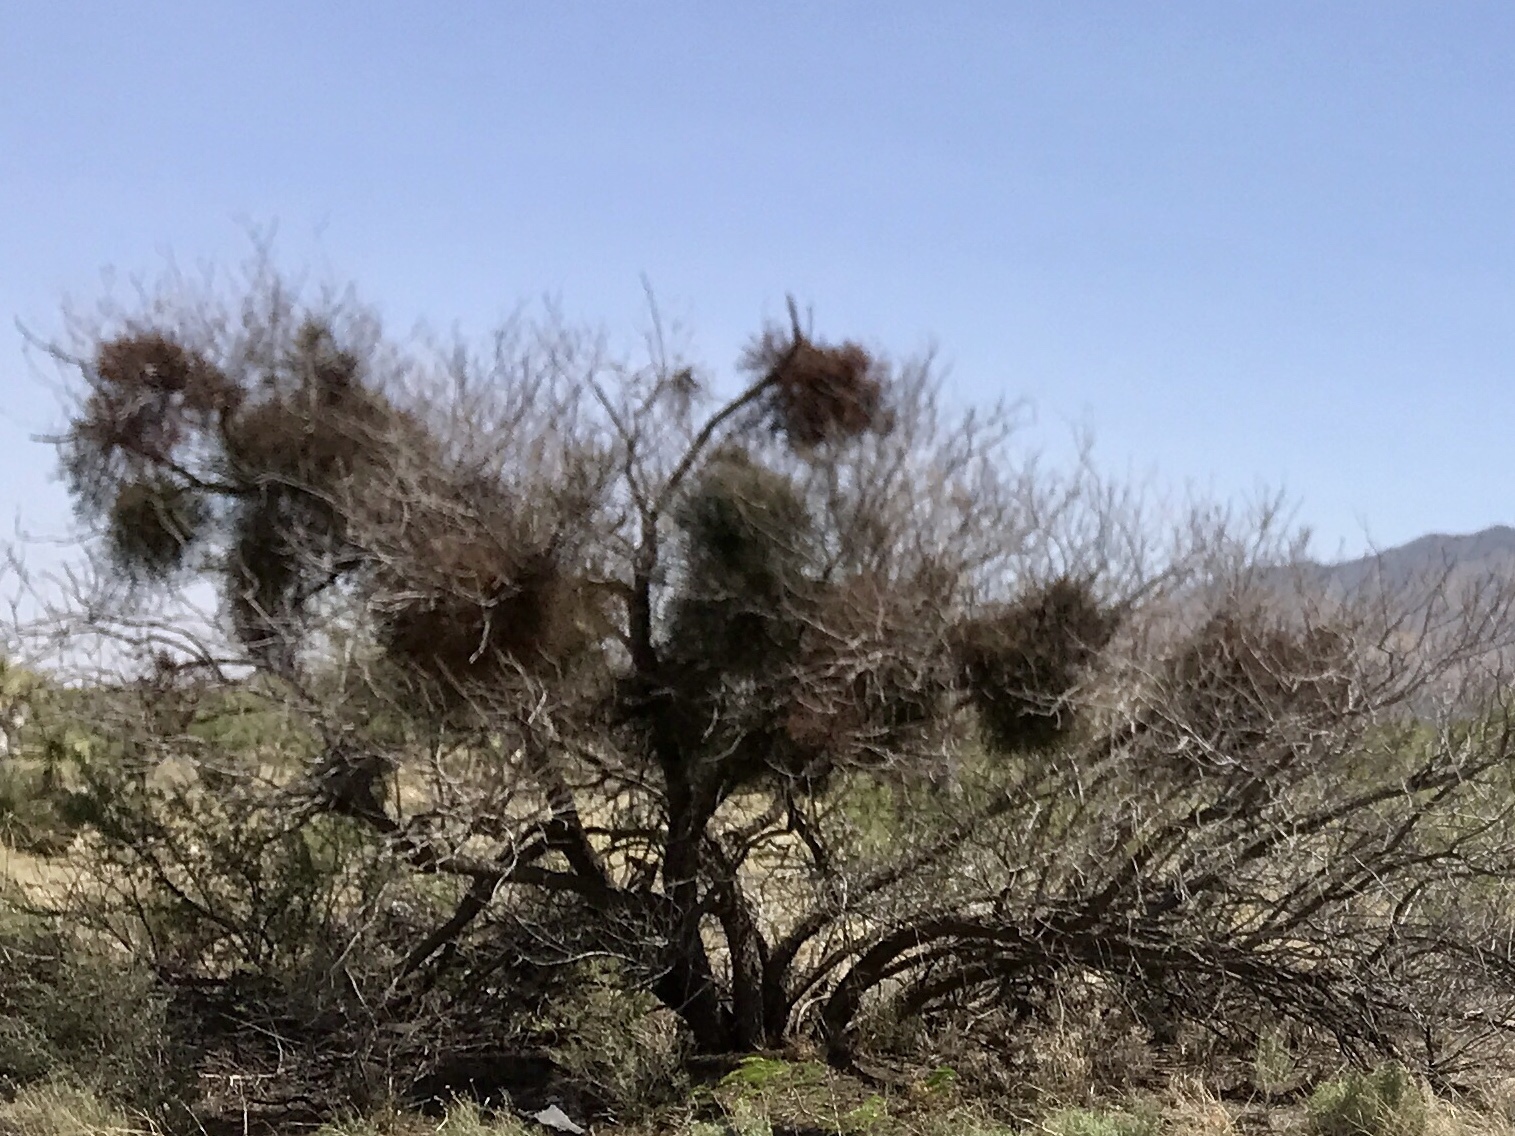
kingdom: Plantae
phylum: Tracheophyta
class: Magnoliopsida
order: Santalales
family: Viscaceae
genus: Phoradendron
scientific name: Phoradendron californicum
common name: Acacia mistletoe
